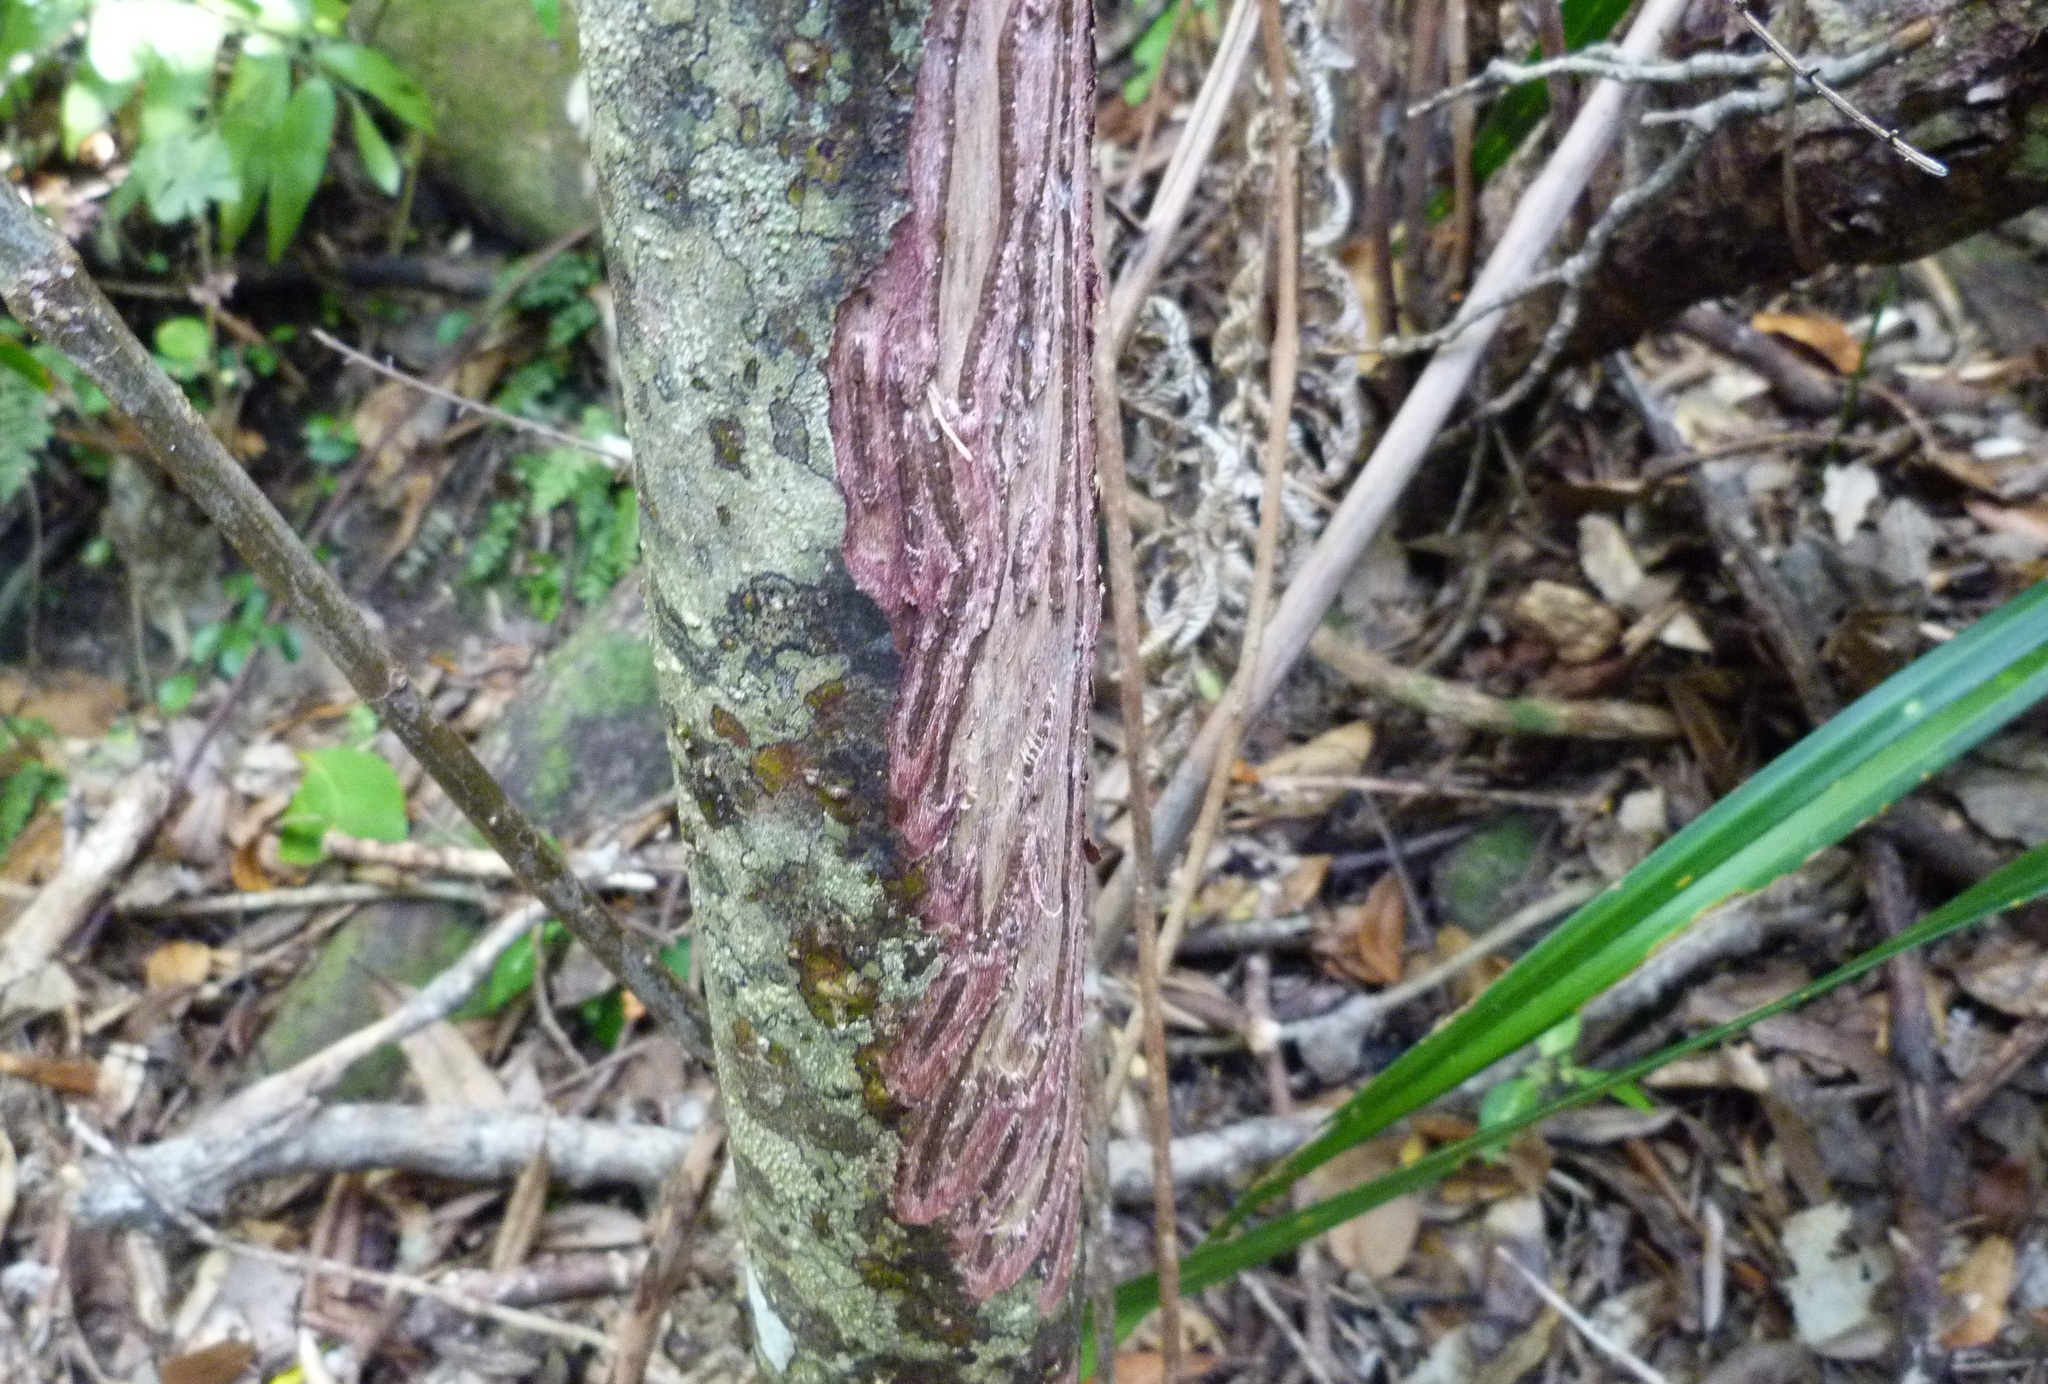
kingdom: Animalia
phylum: Chordata
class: Mammalia
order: Artiodactyla
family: Bovidae
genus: Capra
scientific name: Capra hircus
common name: Domestic goat
